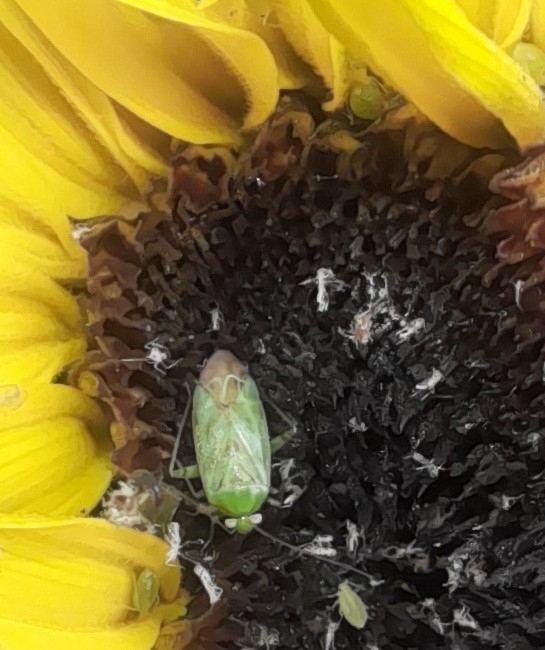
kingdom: Animalia
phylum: Arthropoda
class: Insecta
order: Hemiptera
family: Miridae
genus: Taylorilygus
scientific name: Taylorilygus apicalis
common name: Plant bug
